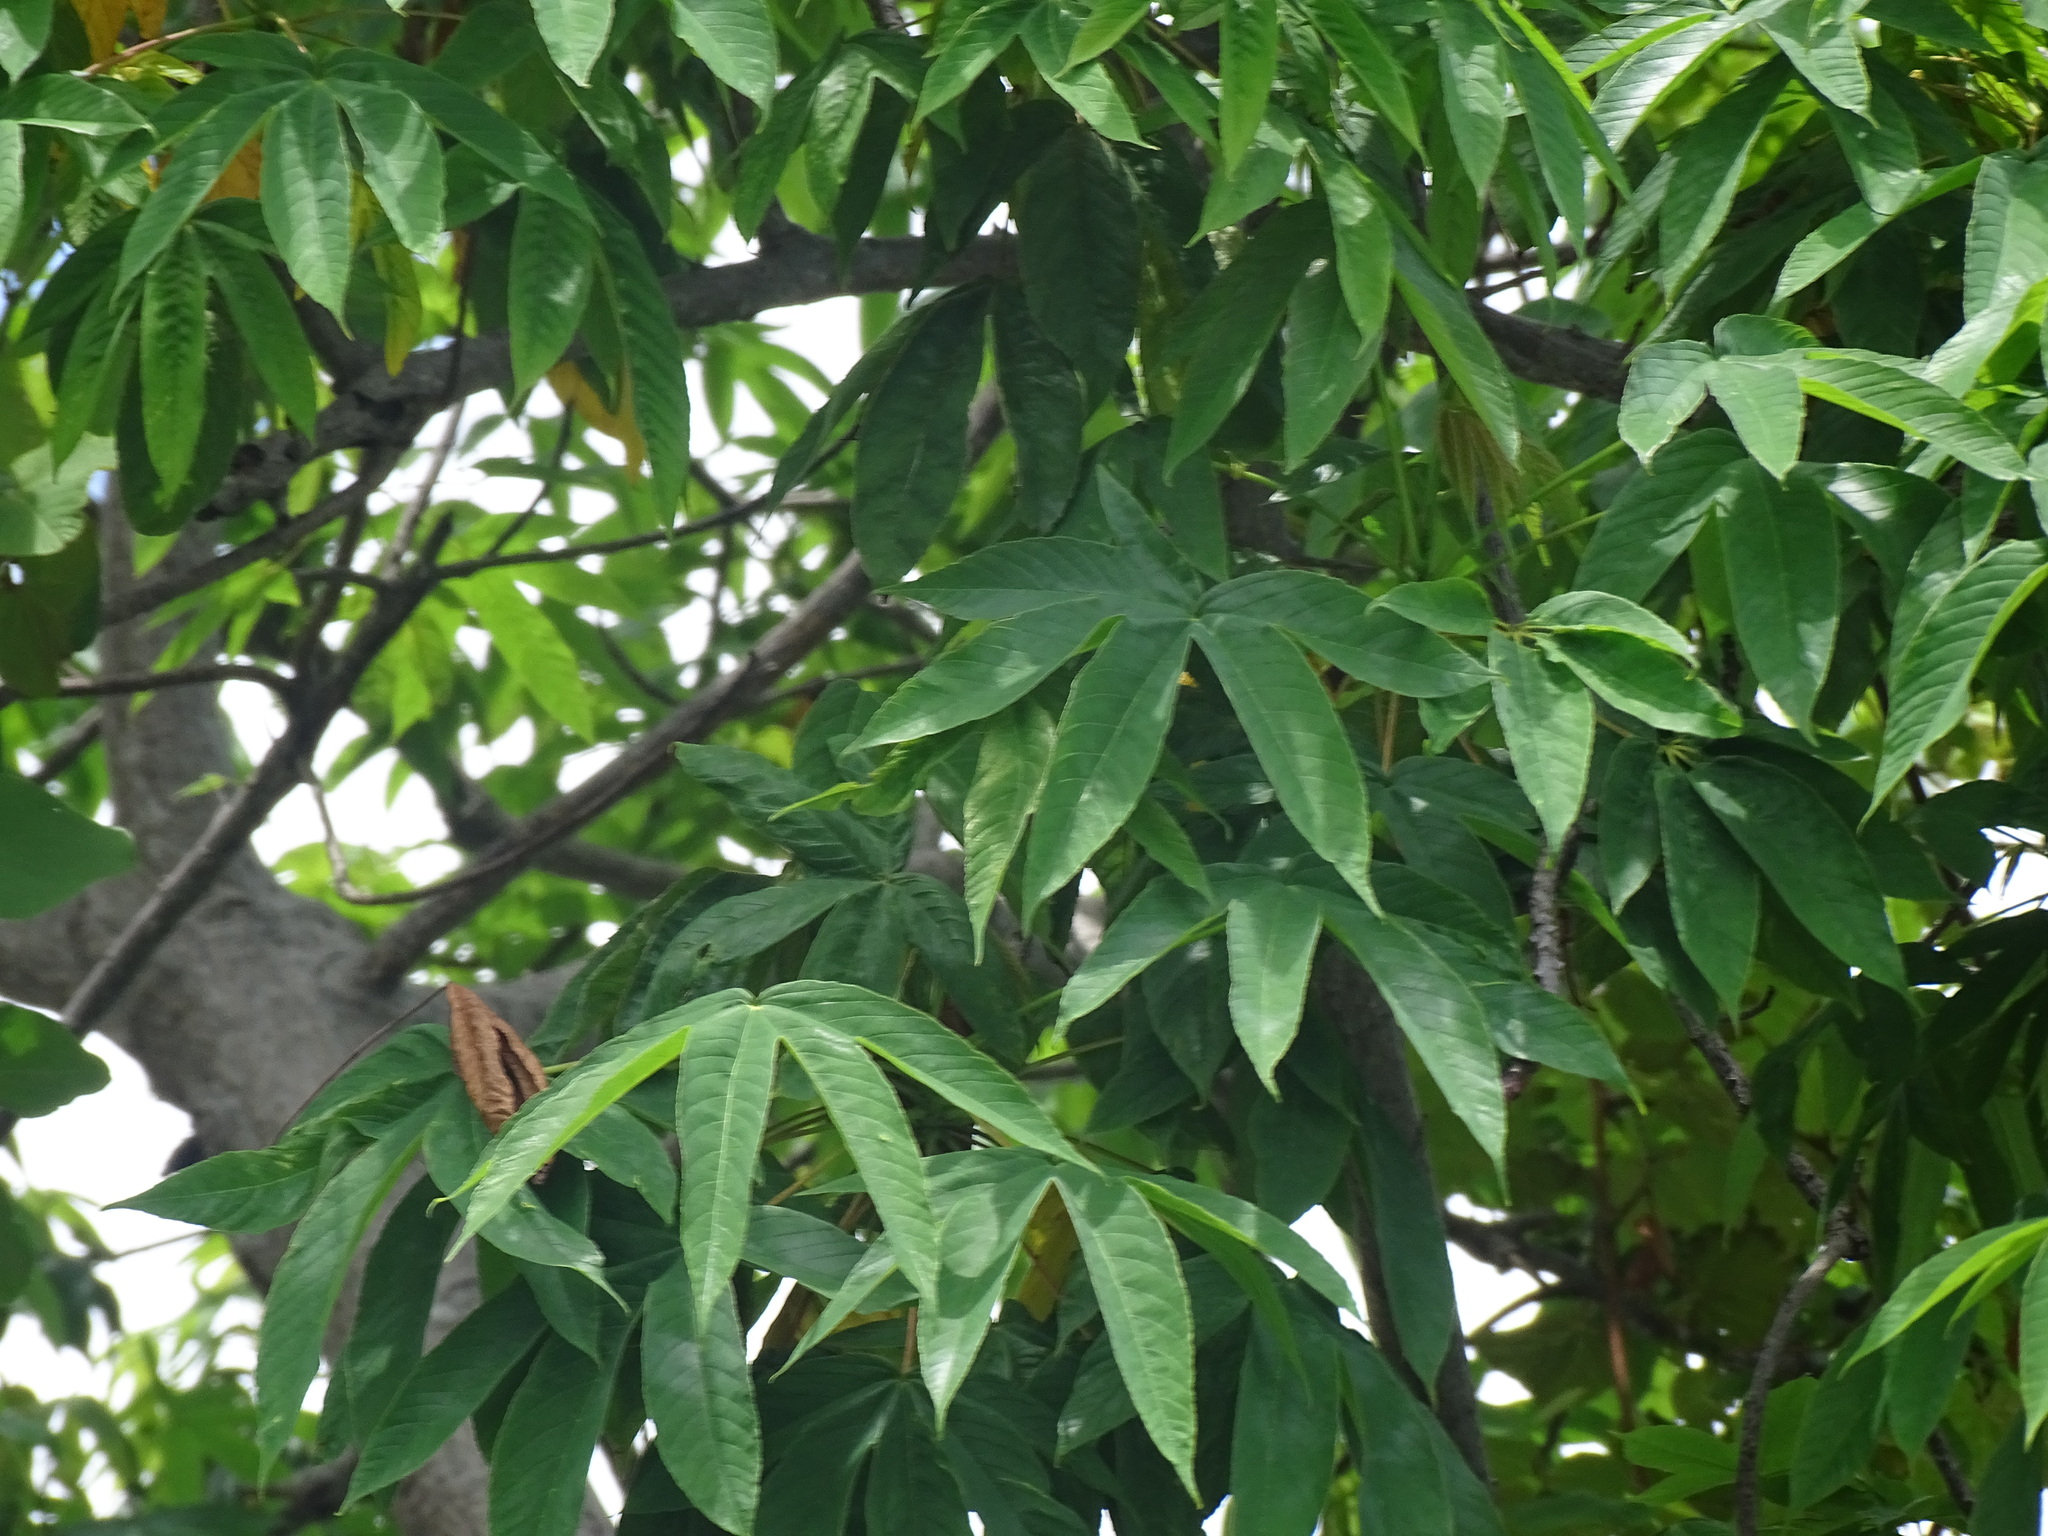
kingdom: Plantae
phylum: Tracheophyta
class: Magnoliopsida
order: Malvales
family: Cochlospermaceae
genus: Cochlospermum
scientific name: Cochlospermum vitifolium
